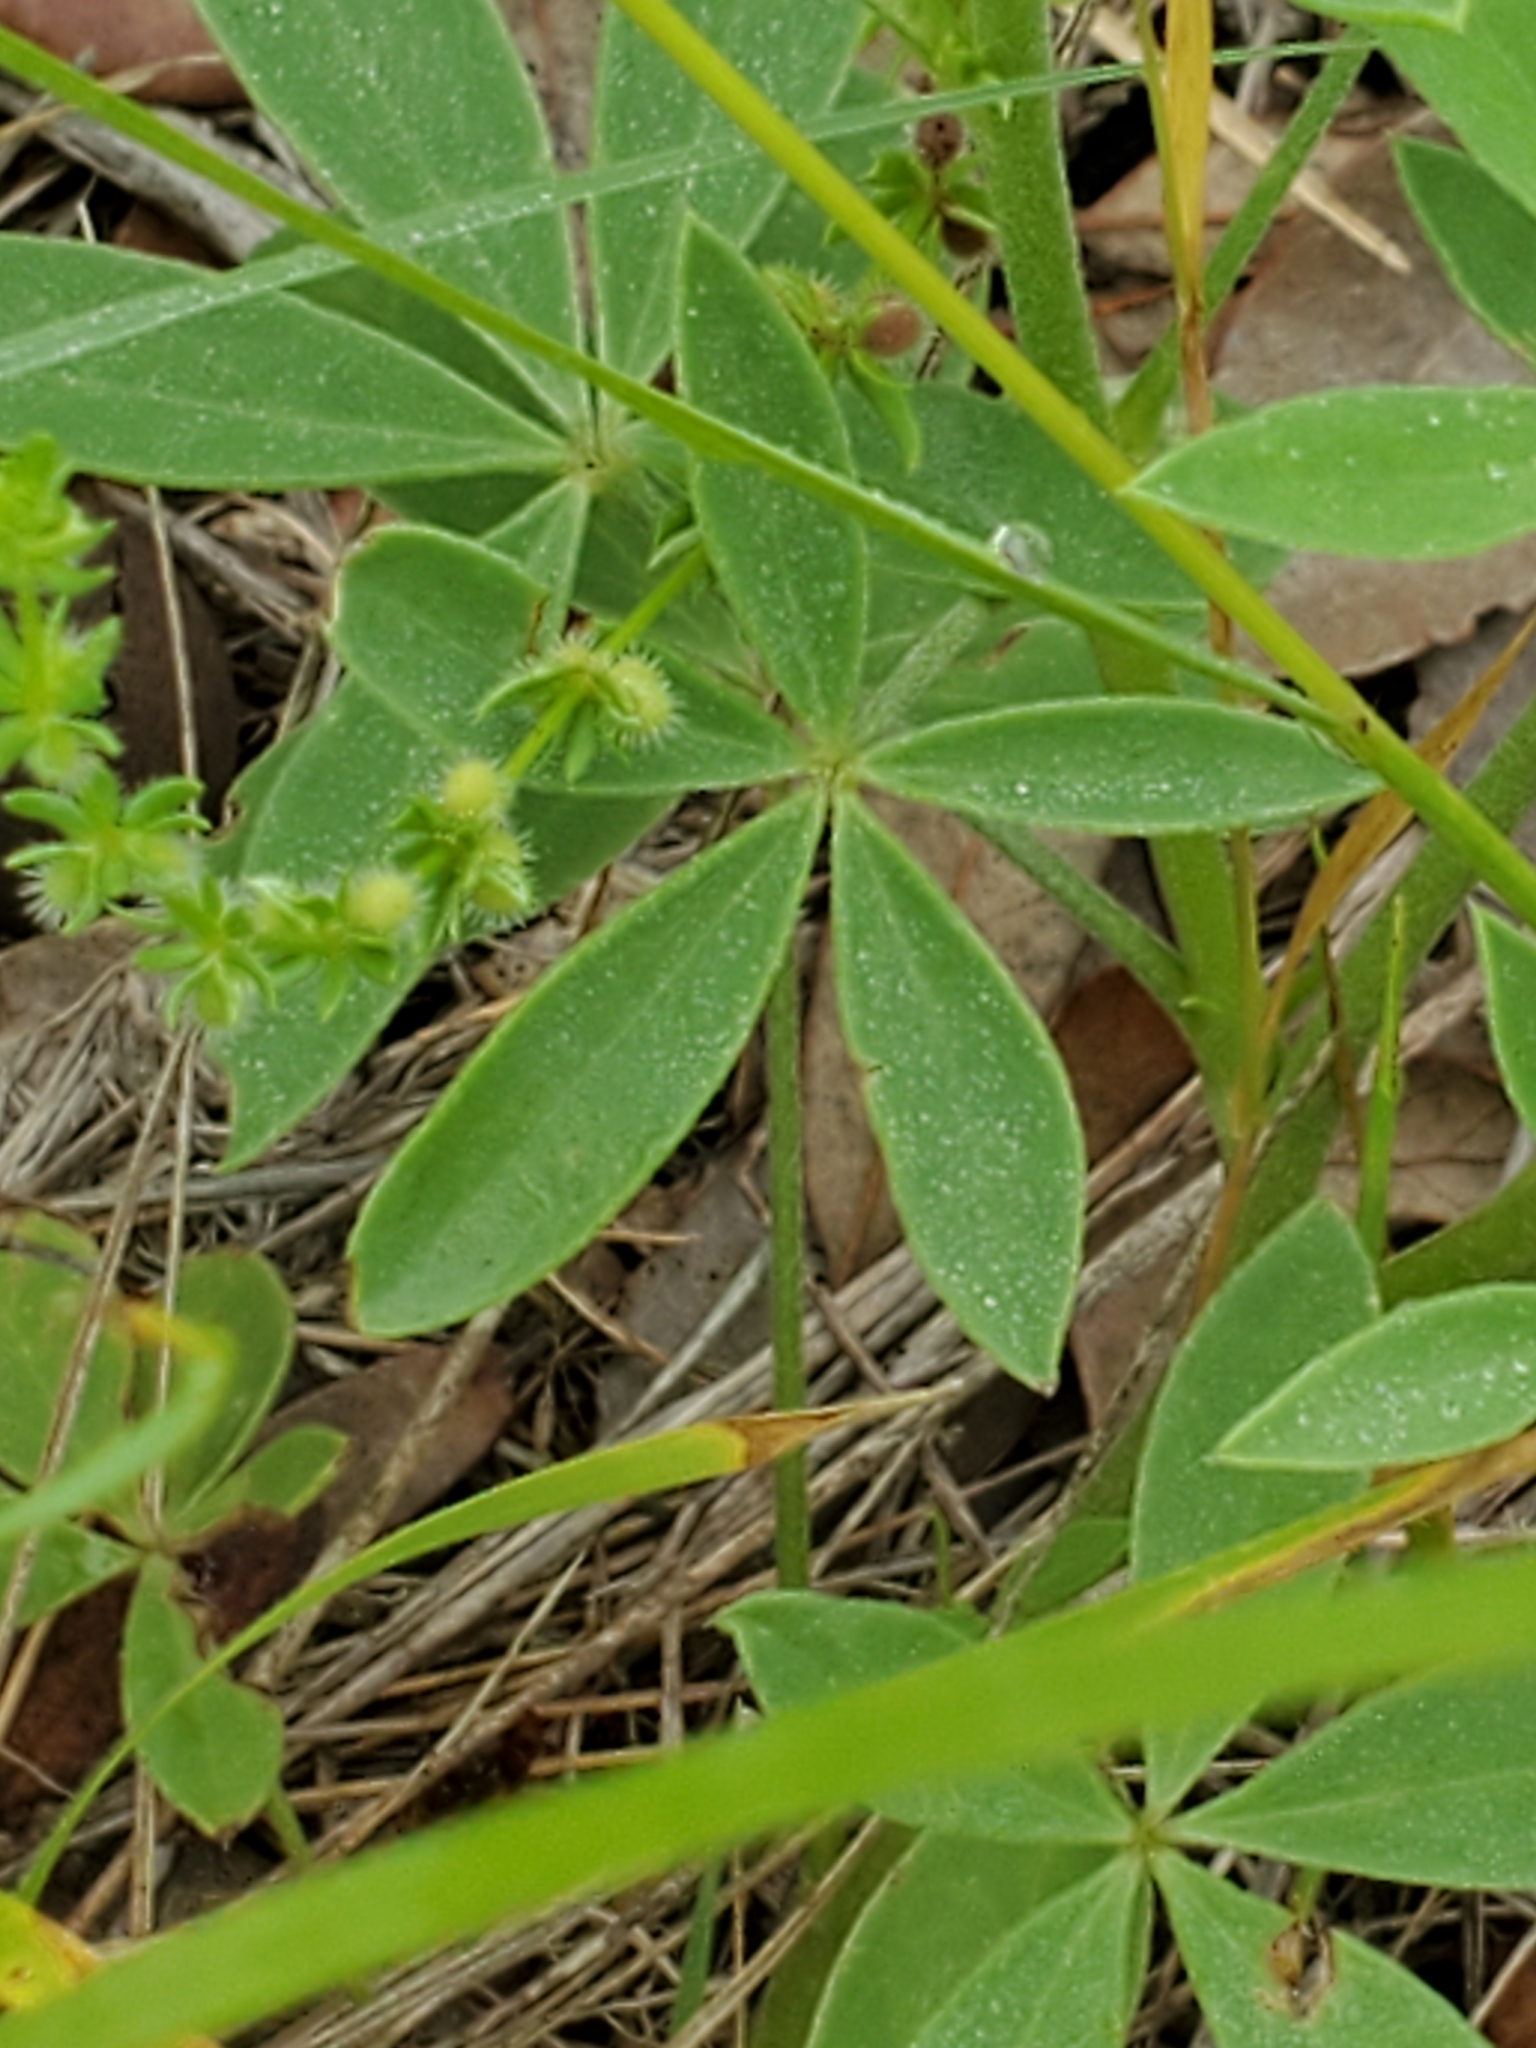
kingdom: Plantae
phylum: Tracheophyta
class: Magnoliopsida
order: Fabales
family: Fabaceae
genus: Lupinus
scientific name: Lupinus texensis
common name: Texas bluebonnet
